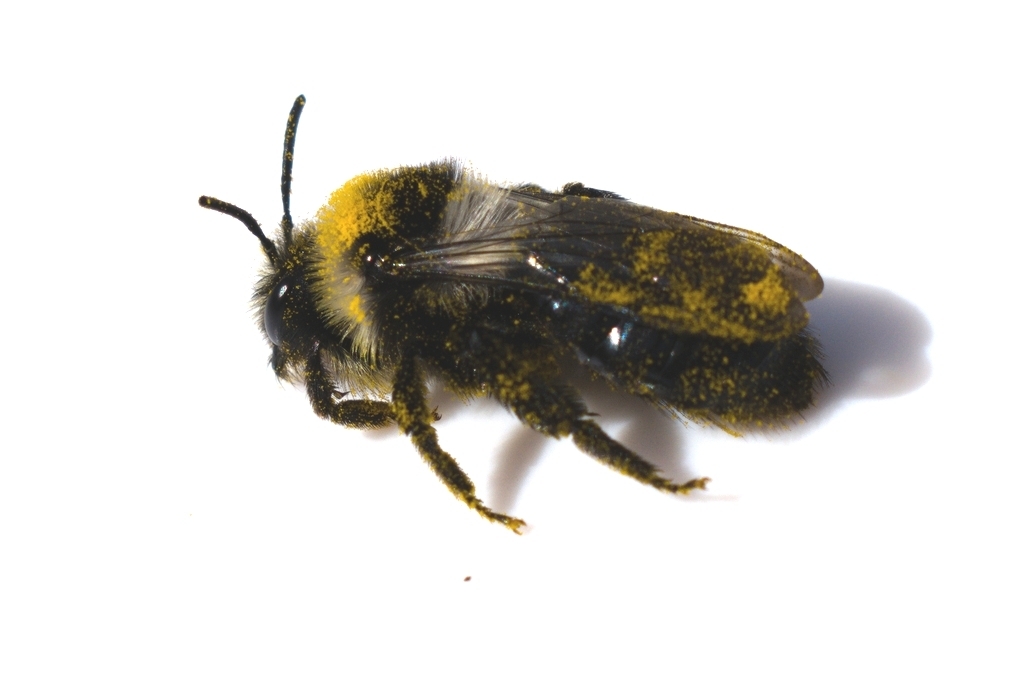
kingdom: Animalia
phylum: Arthropoda
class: Insecta
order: Hymenoptera
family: Andrenidae
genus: Andrena
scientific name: Andrena cineraria
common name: Ashy mining bee
